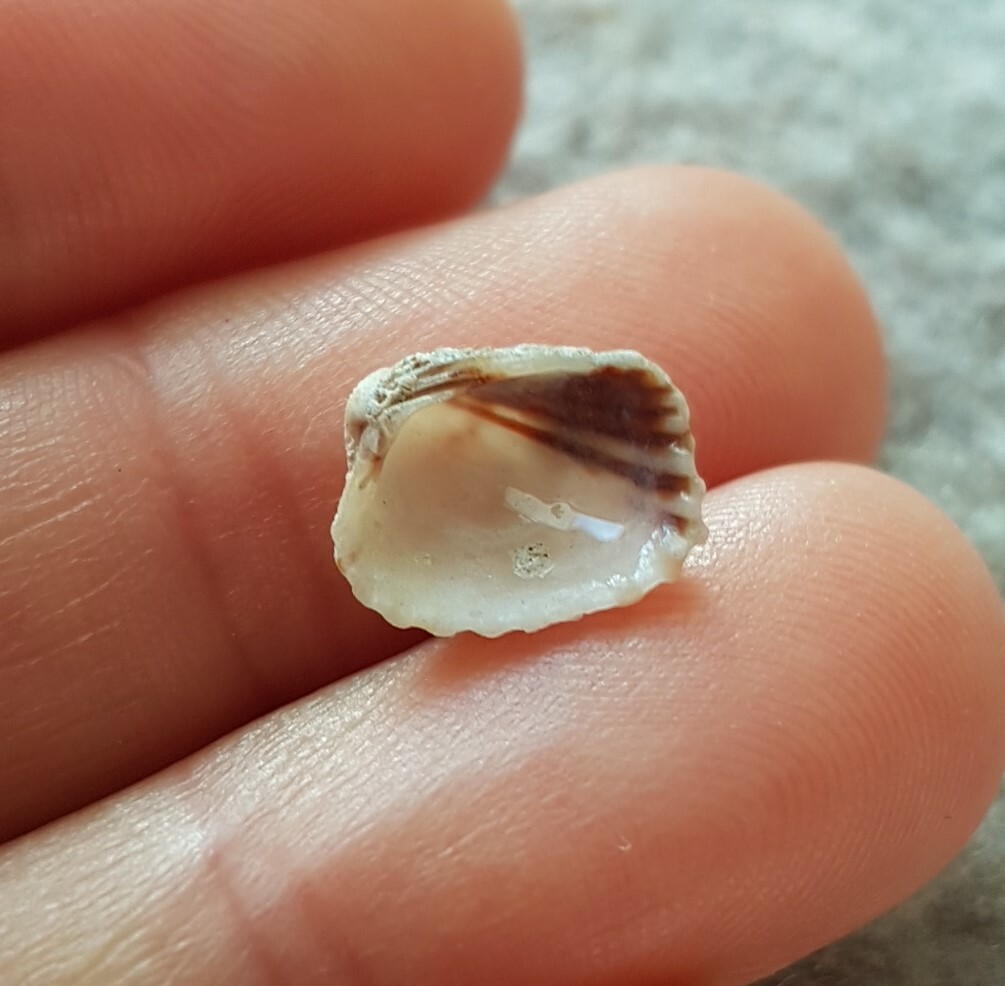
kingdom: Animalia
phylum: Mollusca
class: Bivalvia
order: Carditida
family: Carditidae
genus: Glans
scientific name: Glans trapezia
